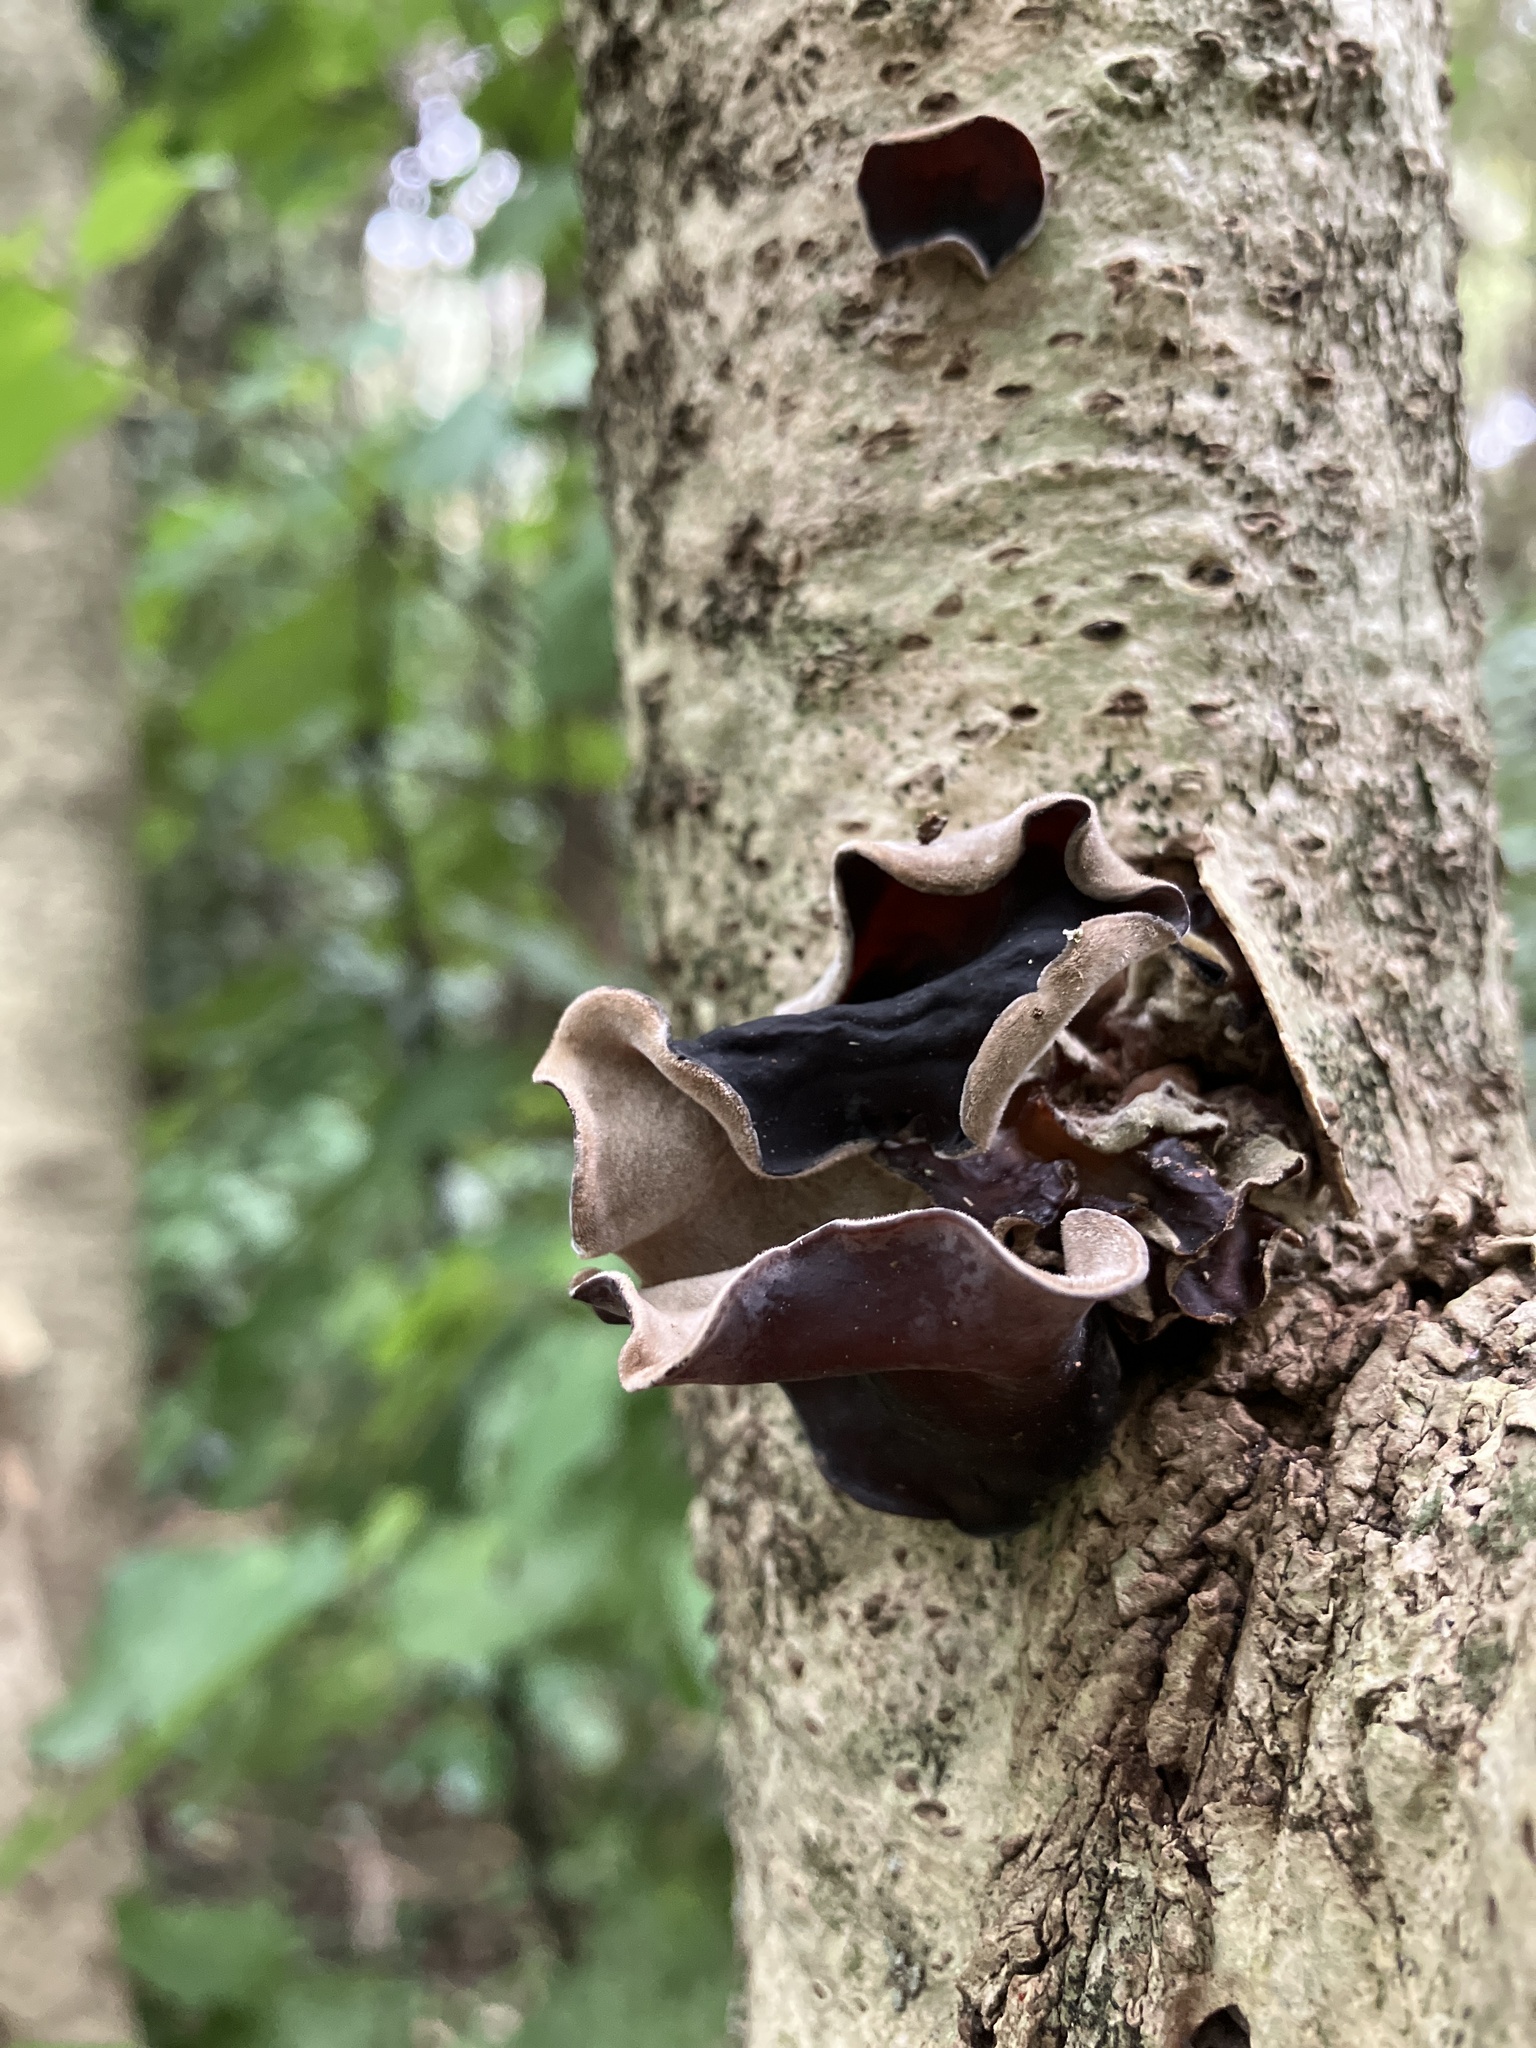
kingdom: Fungi
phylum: Basidiomycota
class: Agaricomycetes
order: Auriculariales
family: Auriculariaceae
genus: Auricularia
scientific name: Auricularia cornea
